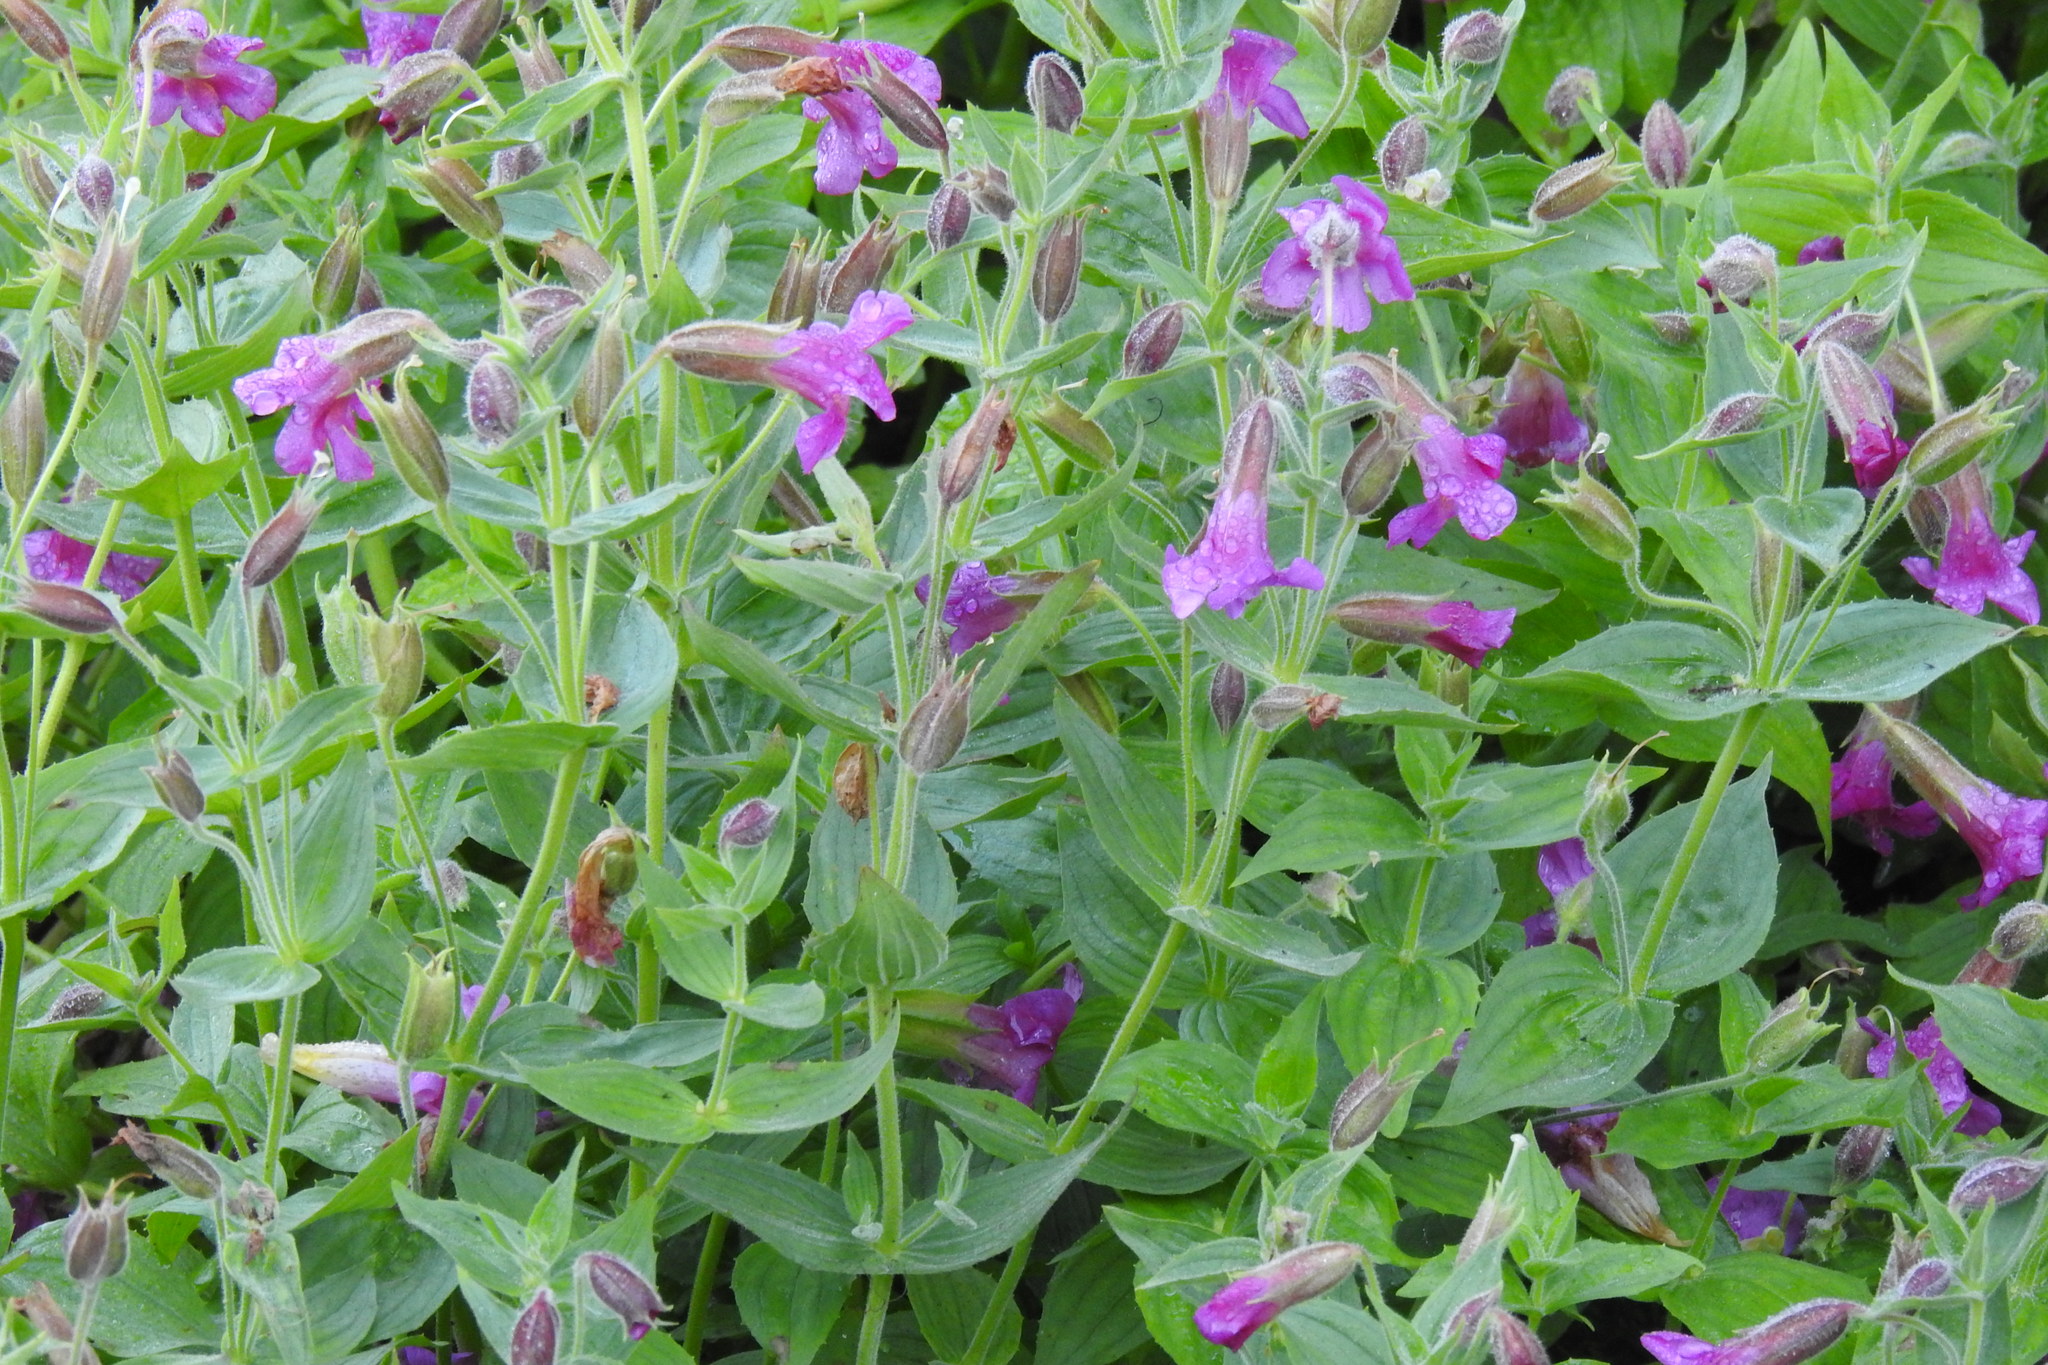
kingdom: Plantae
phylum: Tracheophyta
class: Magnoliopsida
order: Lamiales
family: Phrymaceae
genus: Erythranthe
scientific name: Erythranthe lewisii
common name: Lewis's monkey-flower
